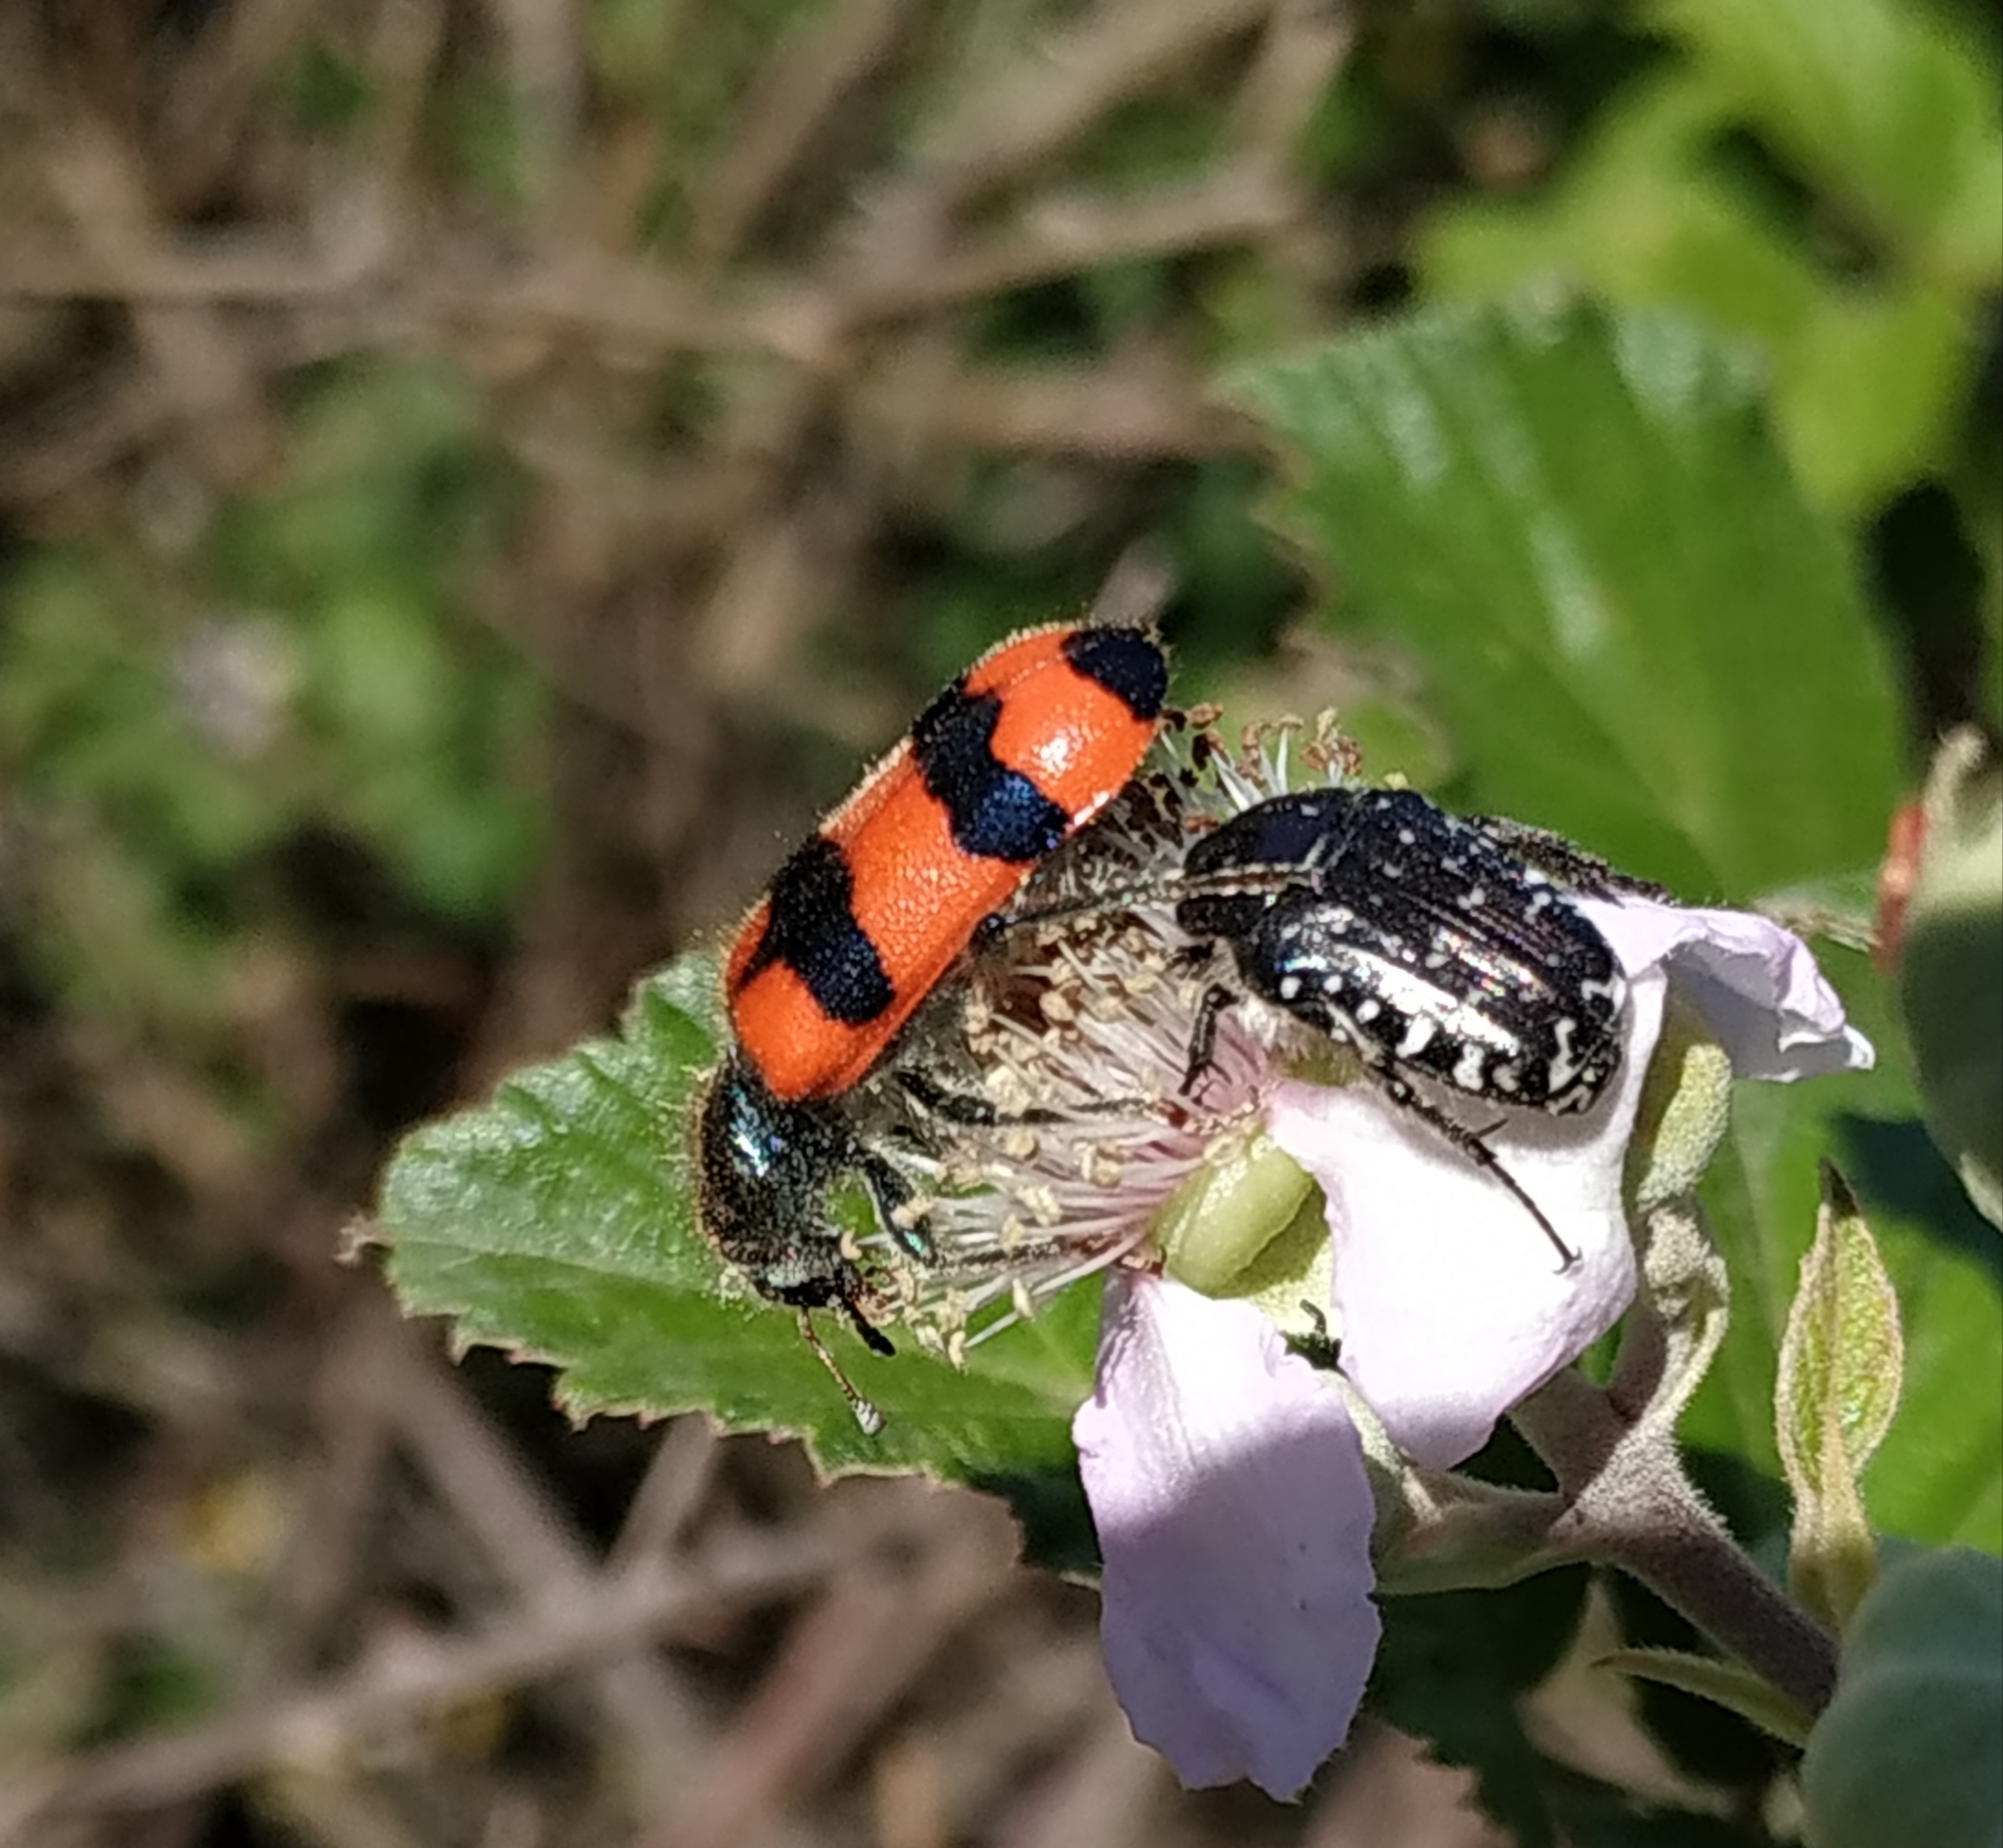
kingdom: Animalia
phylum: Arthropoda
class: Insecta
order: Coleoptera
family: Cleridae
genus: Trichodes
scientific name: Trichodes apiarius
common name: Bee-eating beetle
